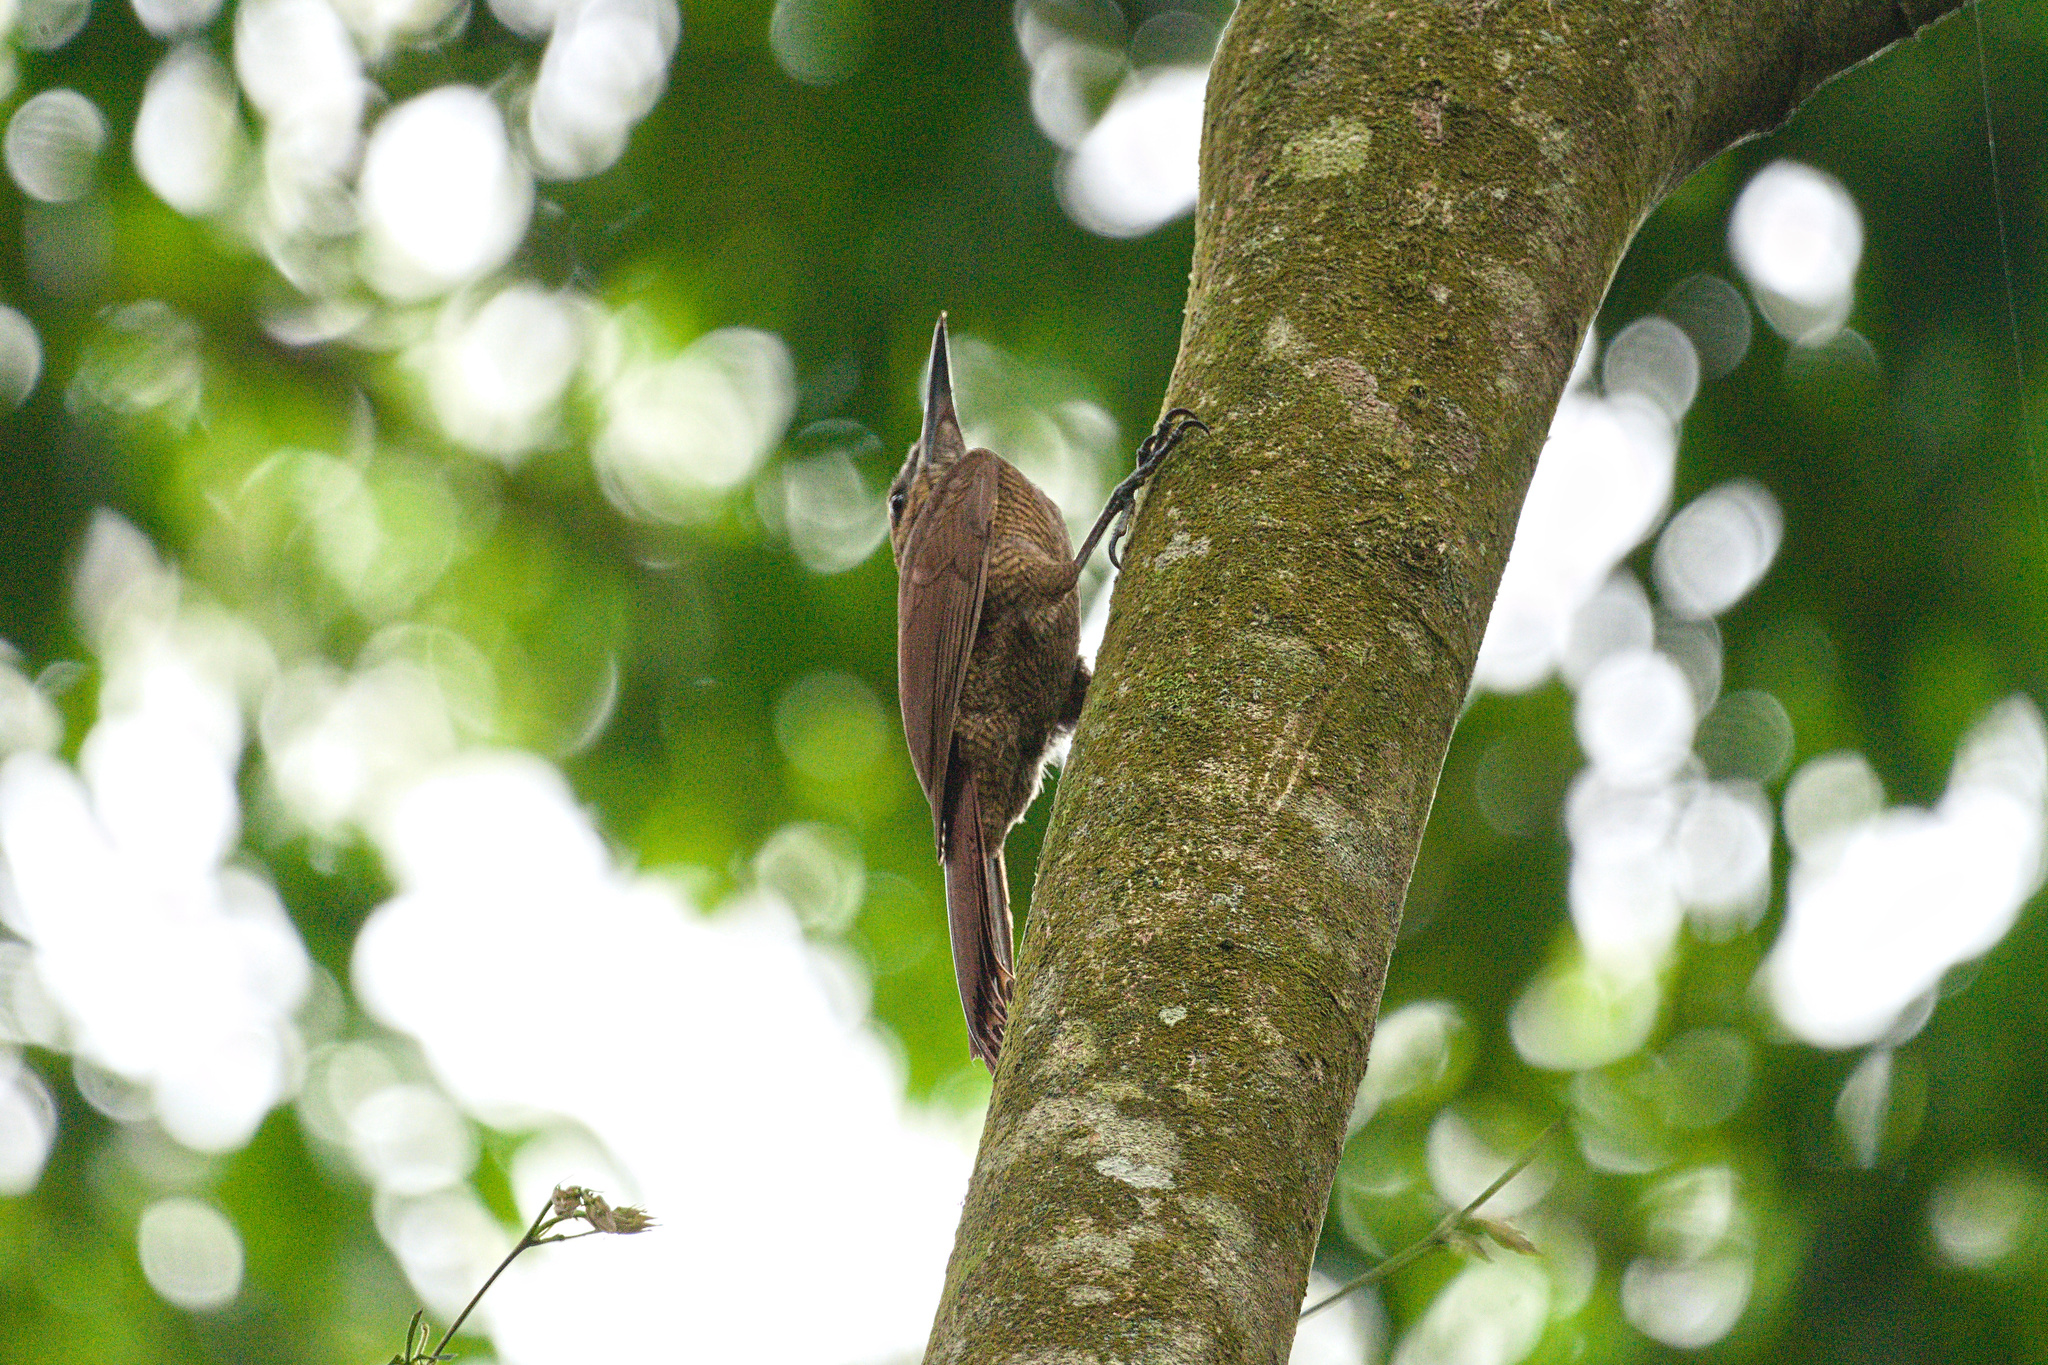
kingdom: Animalia
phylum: Chordata
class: Aves
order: Passeriformes
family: Furnariidae
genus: Dendrocolaptes
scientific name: Dendrocolaptes sanctithomae
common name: Northern barred-woodcreeper
